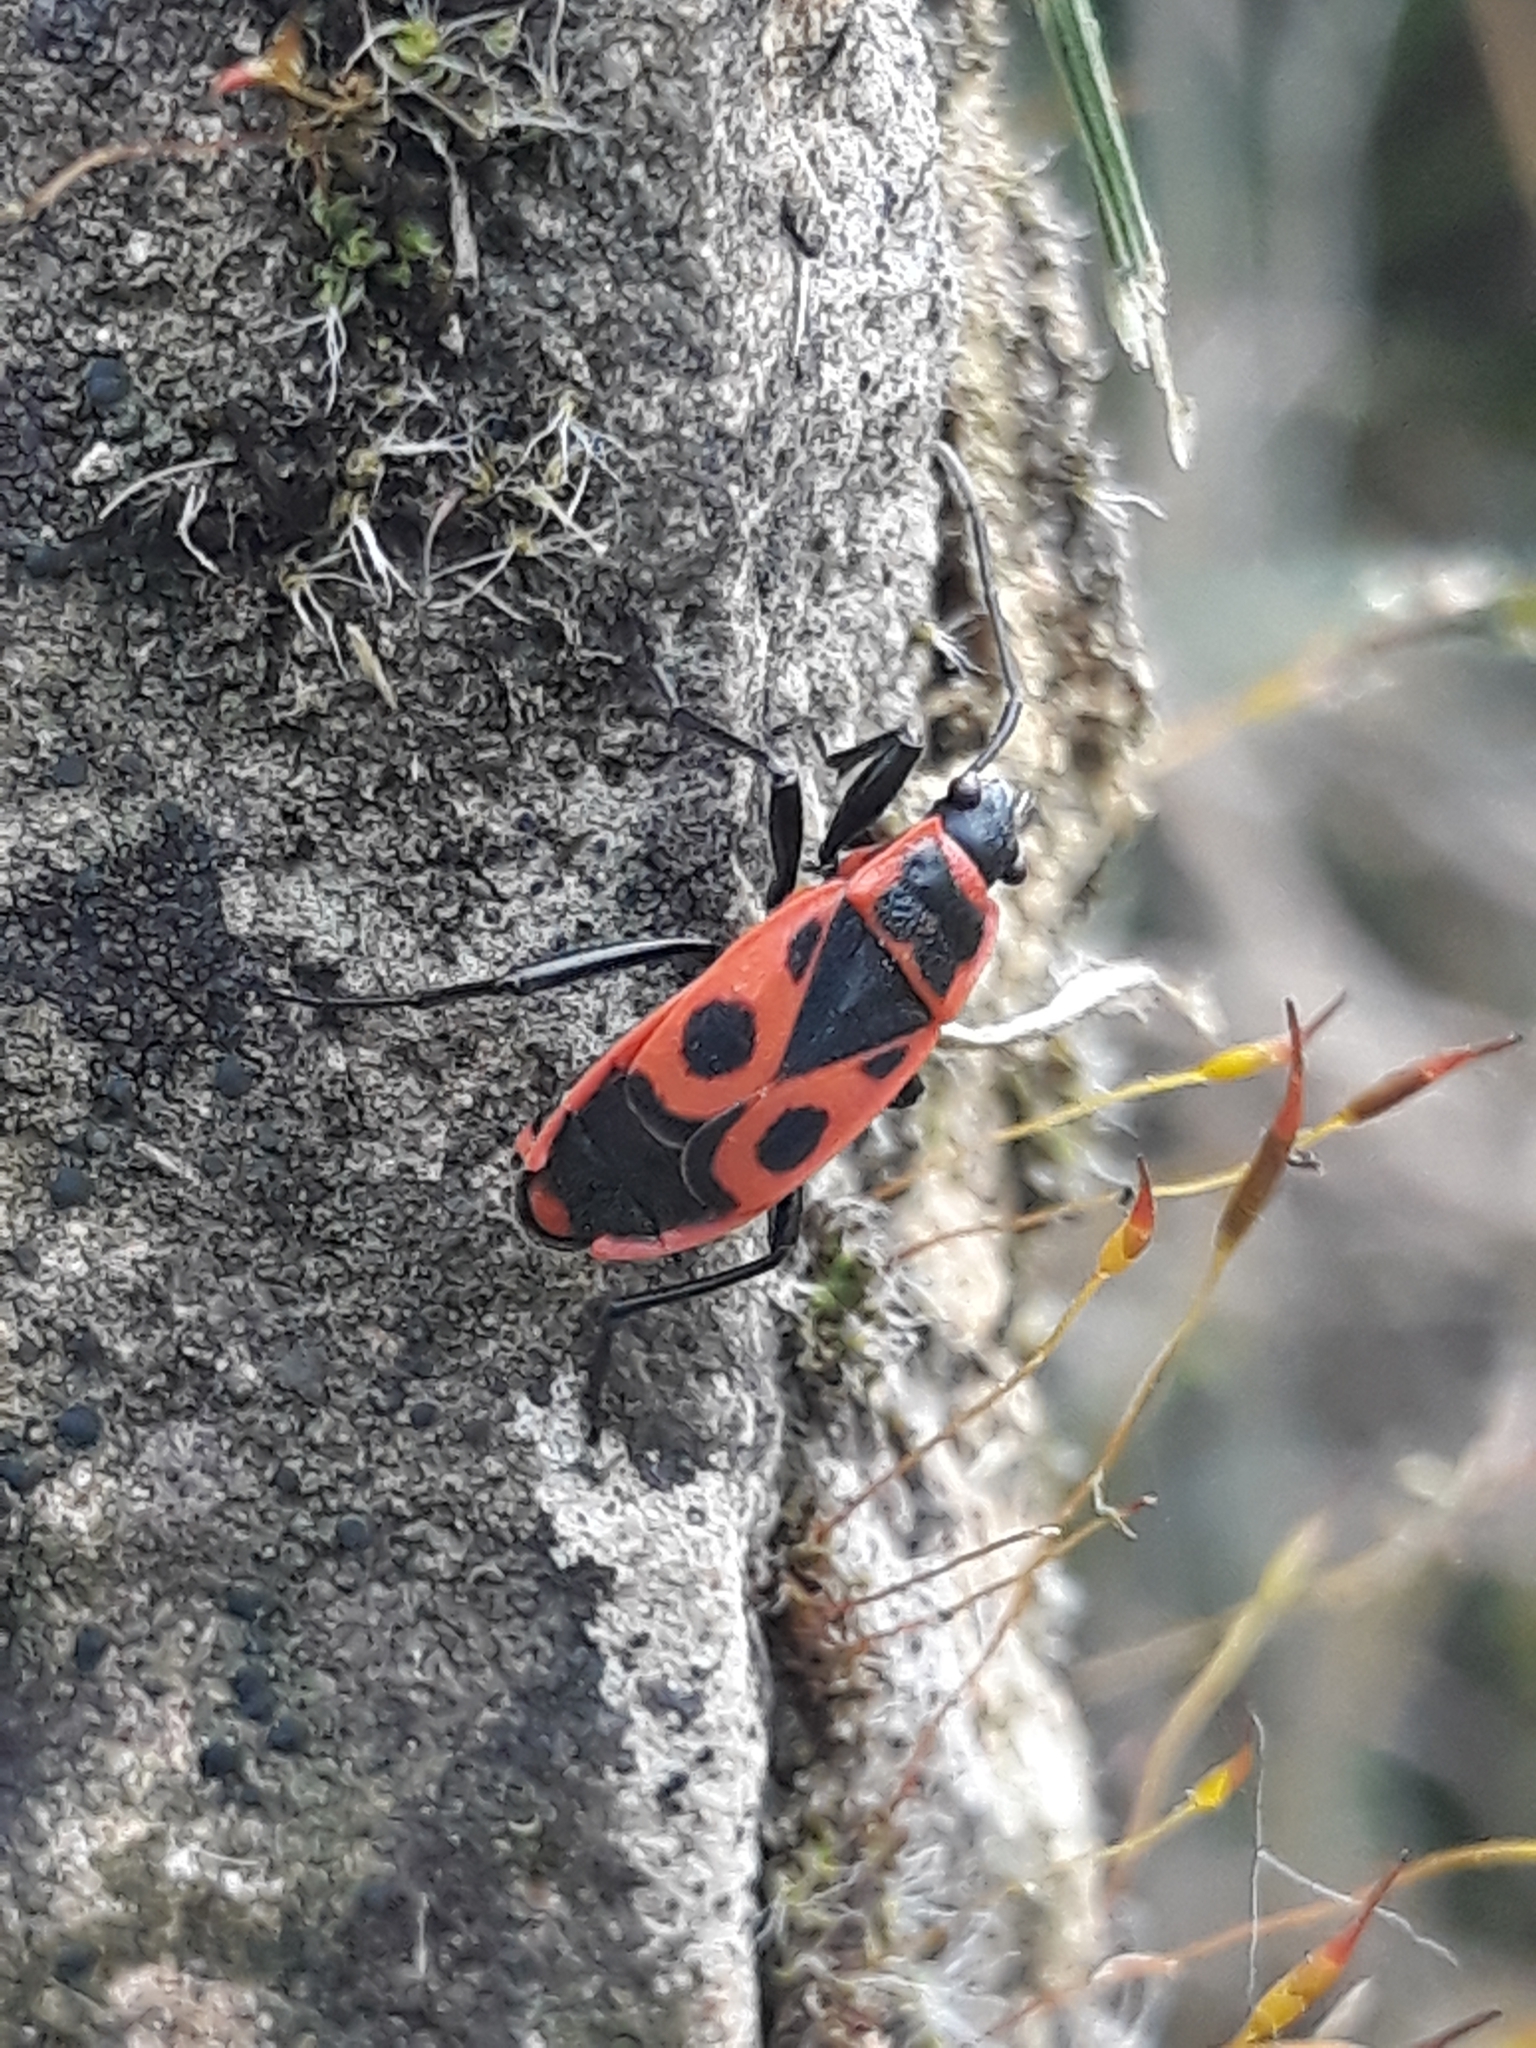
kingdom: Animalia
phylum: Arthropoda
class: Insecta
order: Hemiptera
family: Pyrrhocoridae
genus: Pyrrhocoris
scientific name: Pyrrhocoris apterus
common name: Firebug
